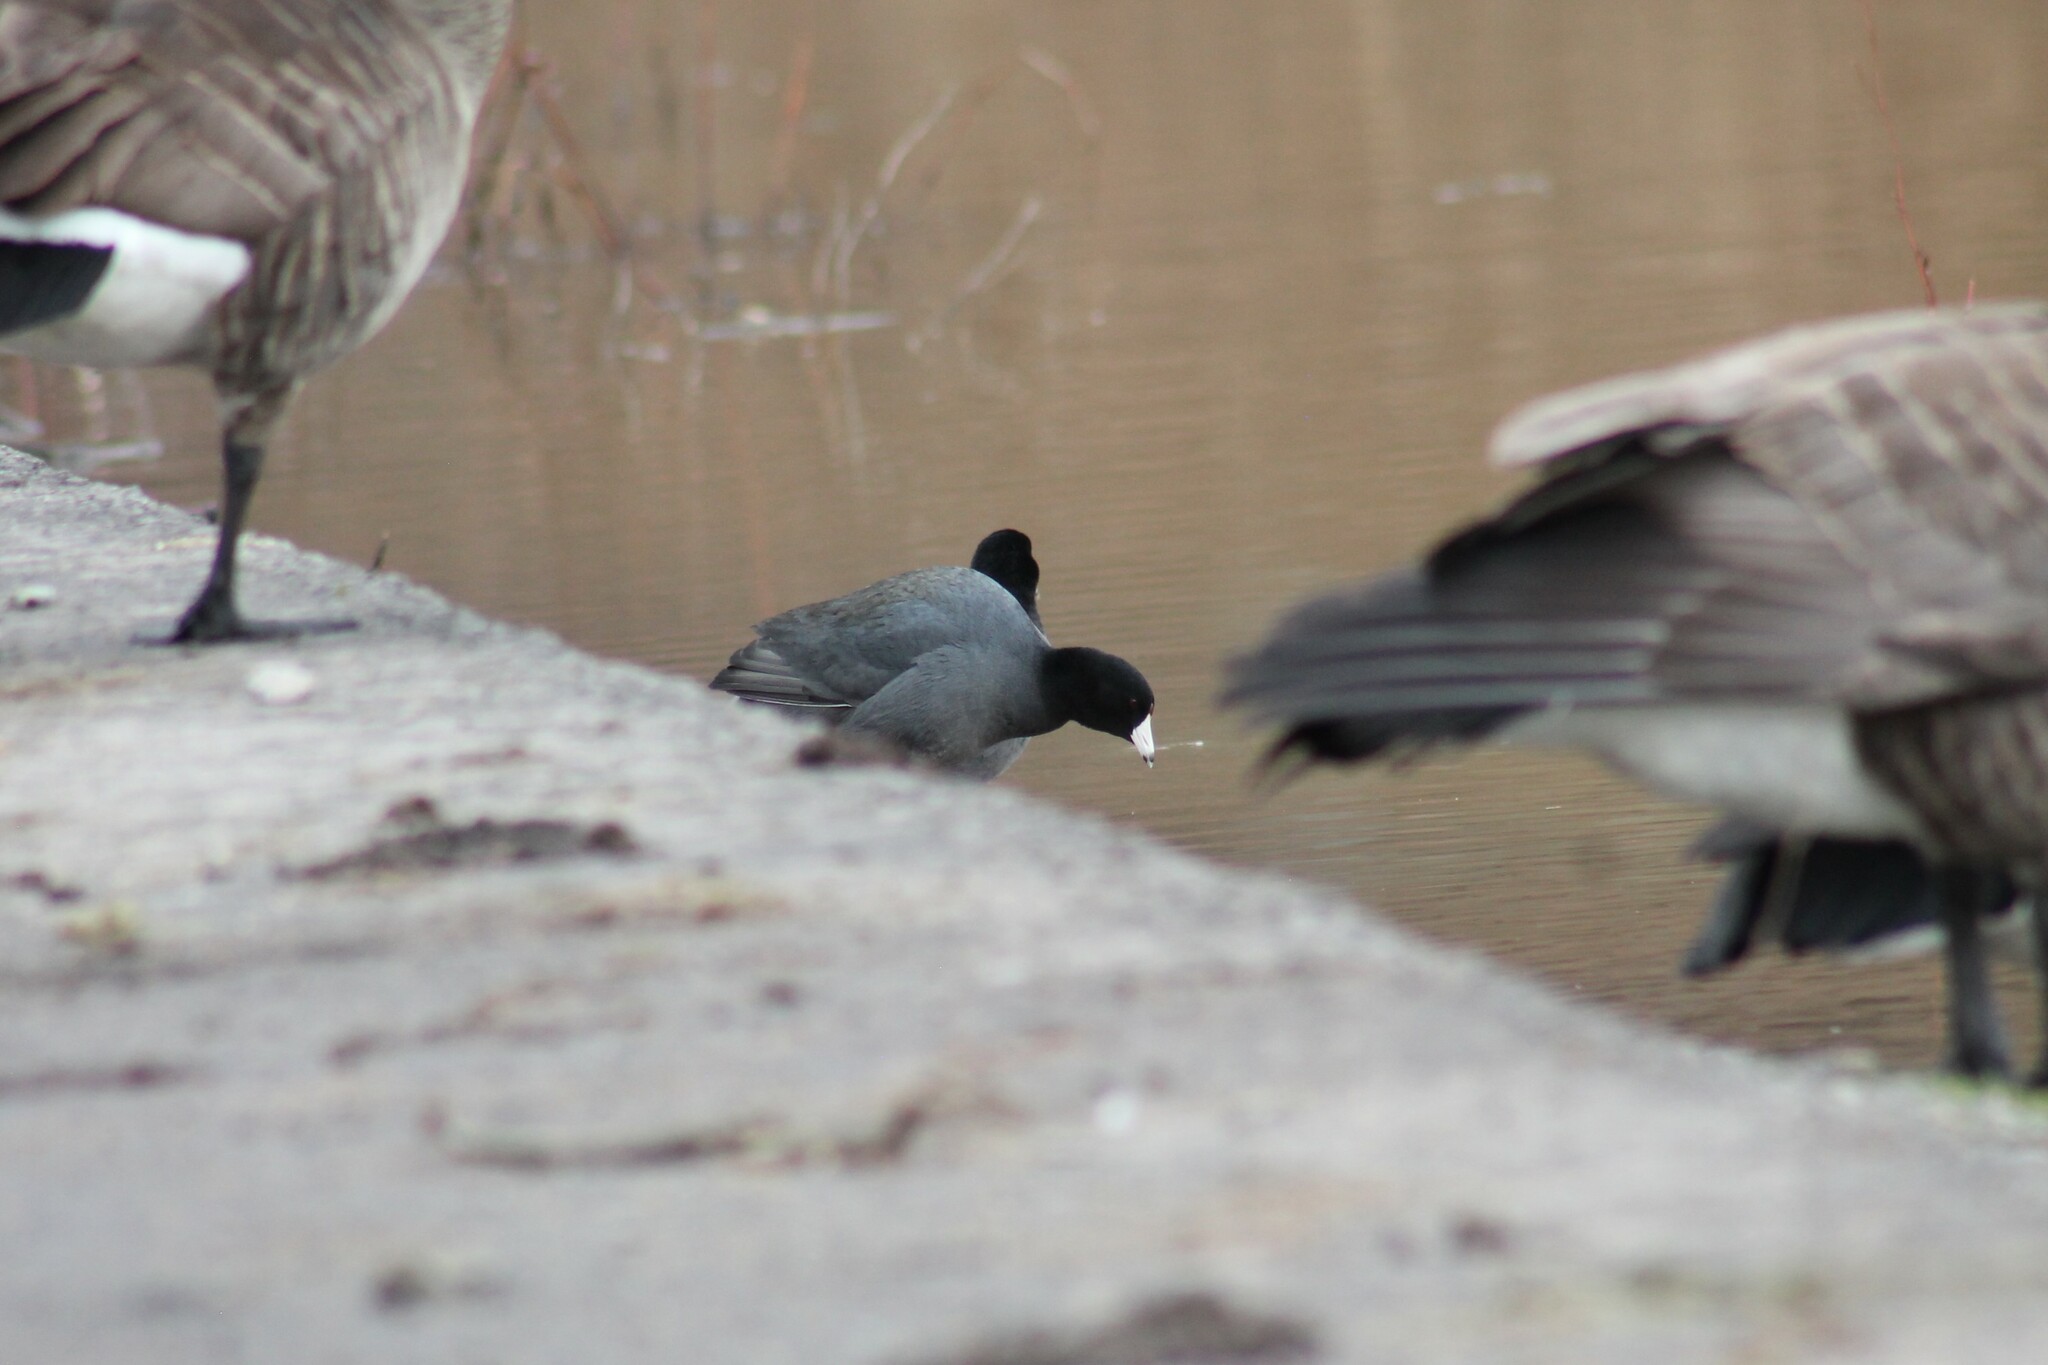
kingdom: Animalia
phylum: Chordata
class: Aves
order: Gruiformes
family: Rallidae
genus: Fulica
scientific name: Fulica americana
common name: American coot
